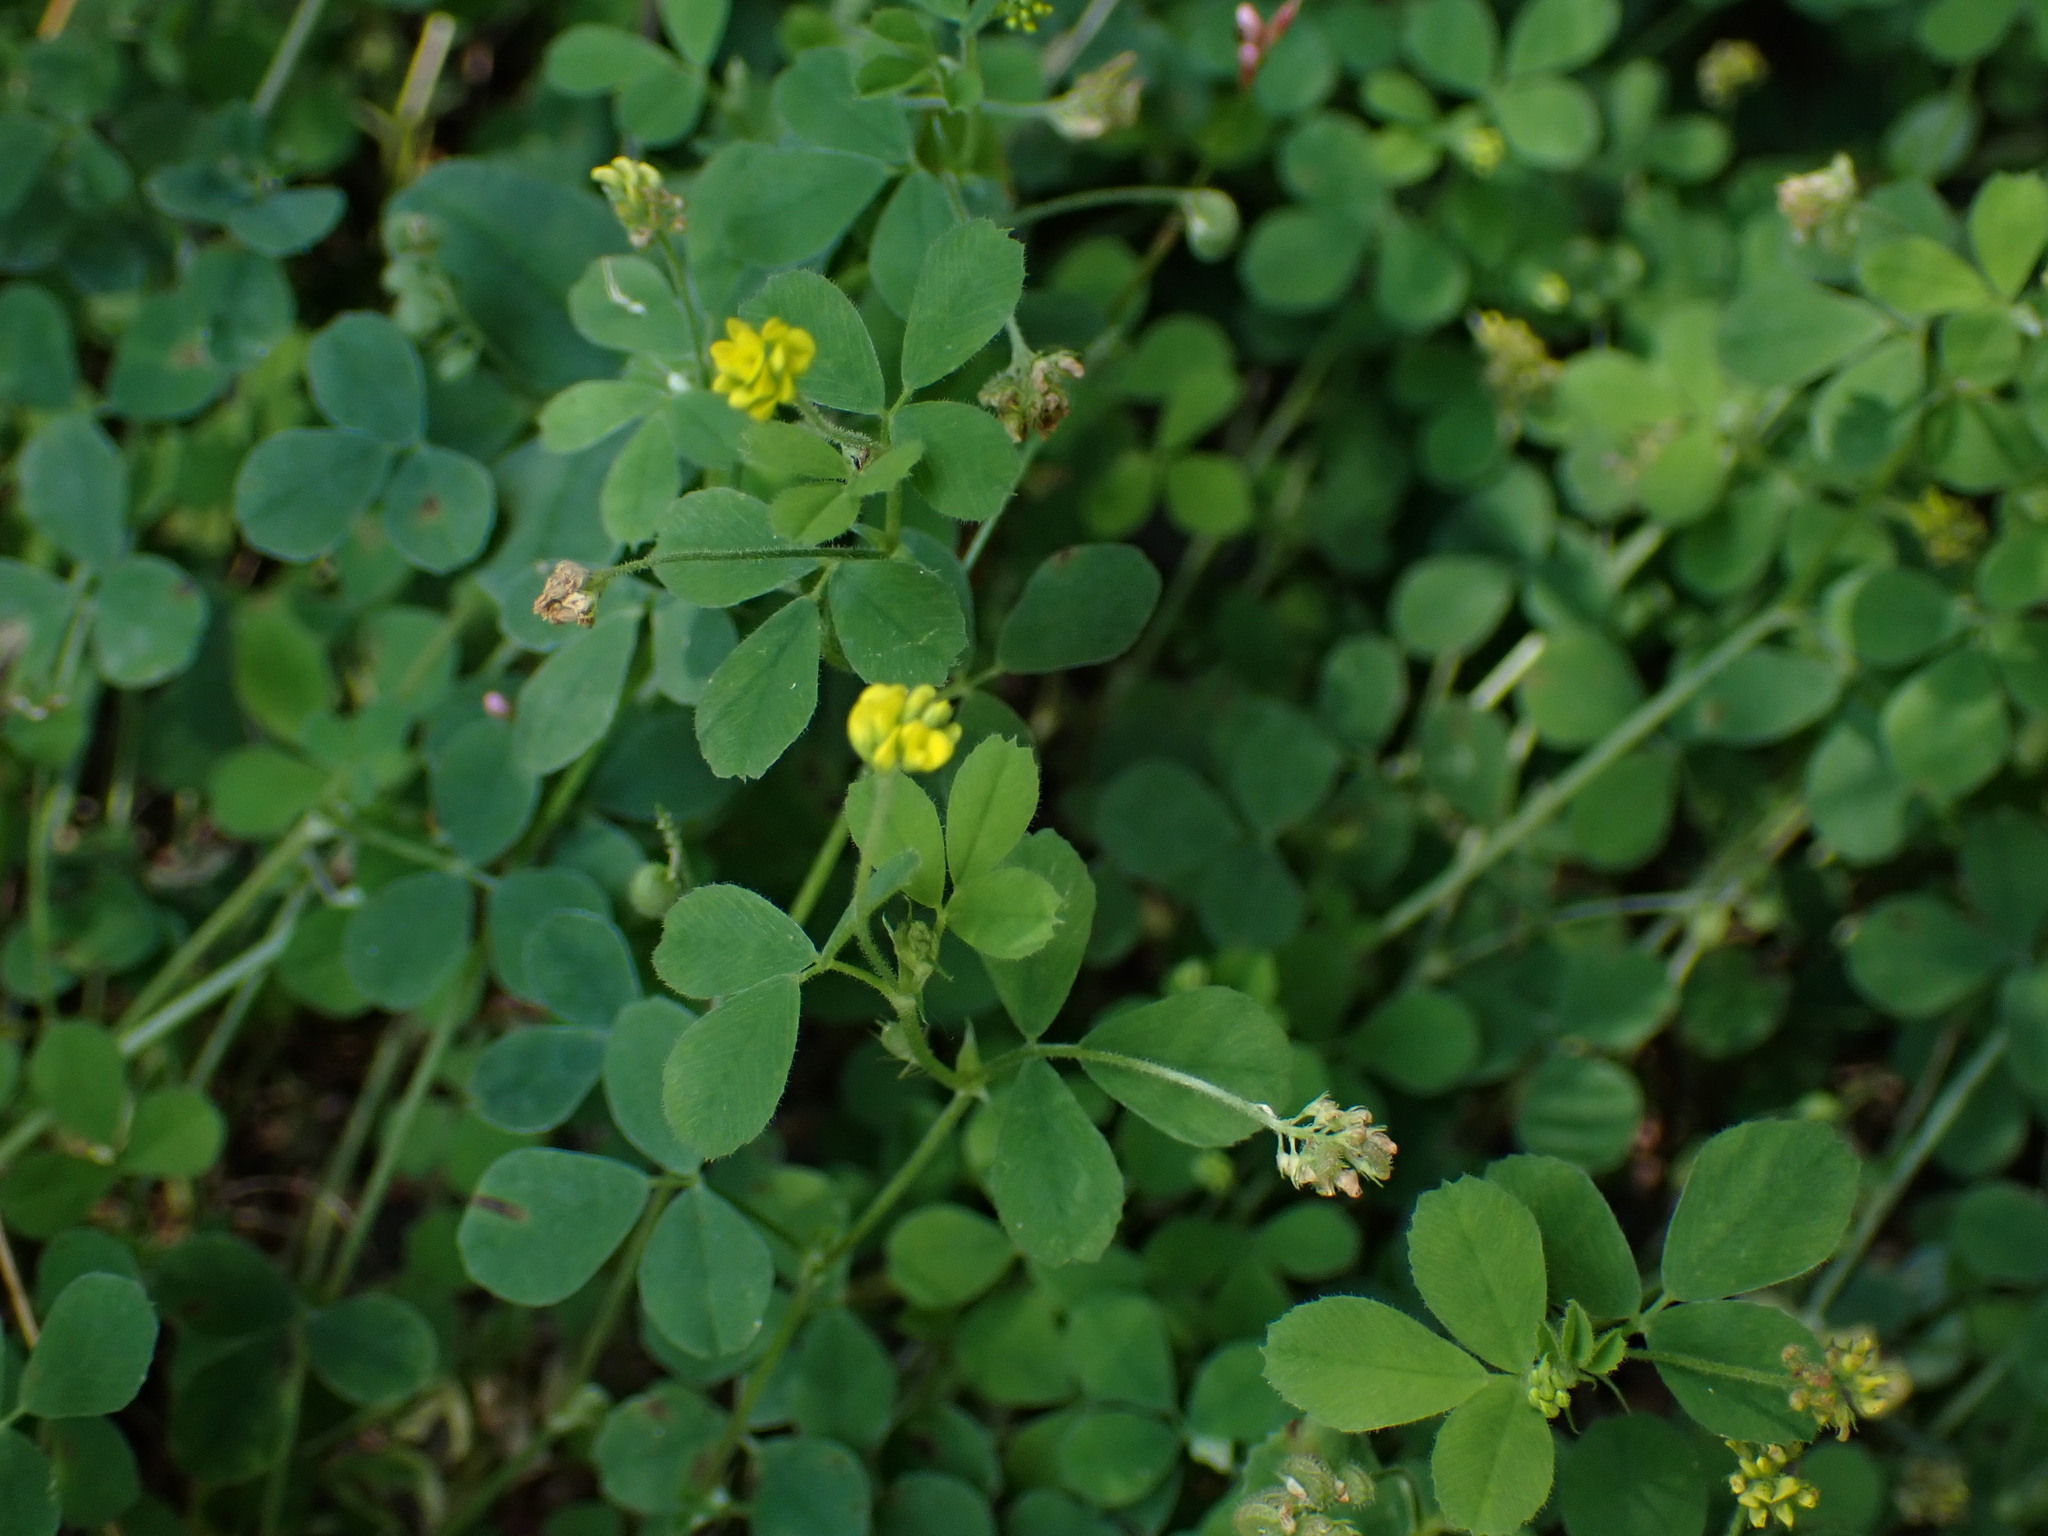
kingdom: Plantae
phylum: Tracheophyta
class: Magnoliopsida
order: Fabales
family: Fabaceae
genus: Medicago
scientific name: Medicago lupulina
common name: Black medick
